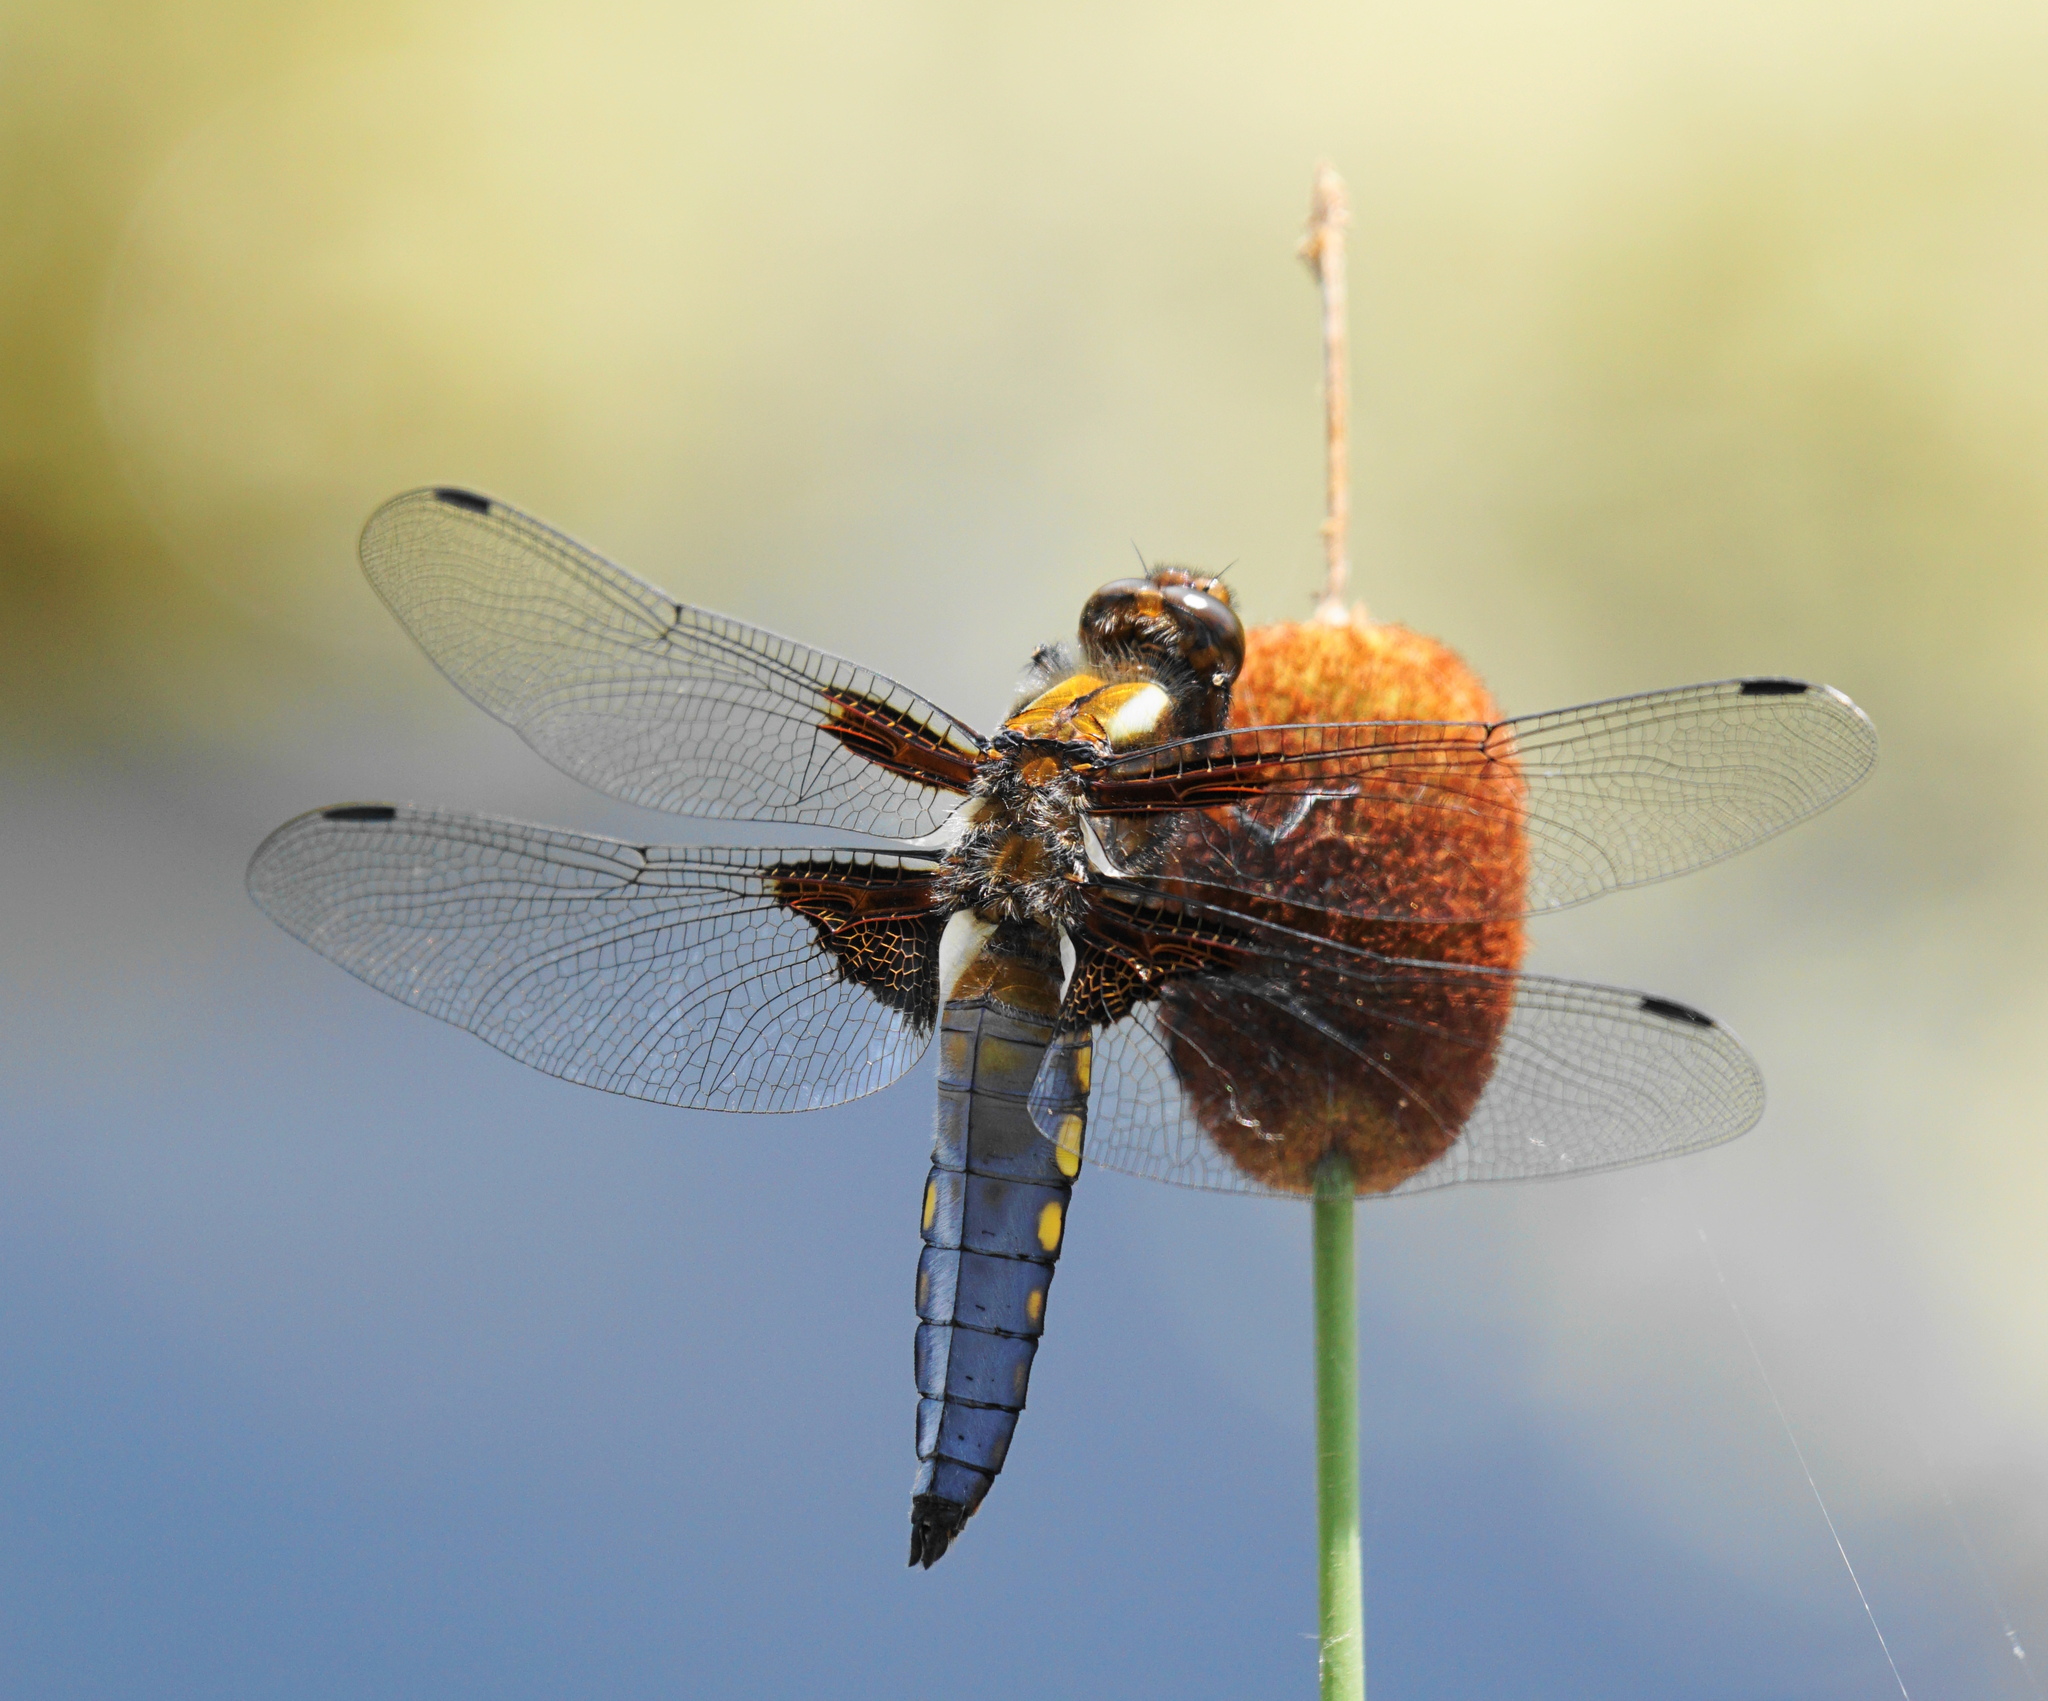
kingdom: Animalia
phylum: Arthropoda
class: Insecta
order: Odonata
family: Libellulidae
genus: Libellula
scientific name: Libellula depressa
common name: Broad-bodied chaser
